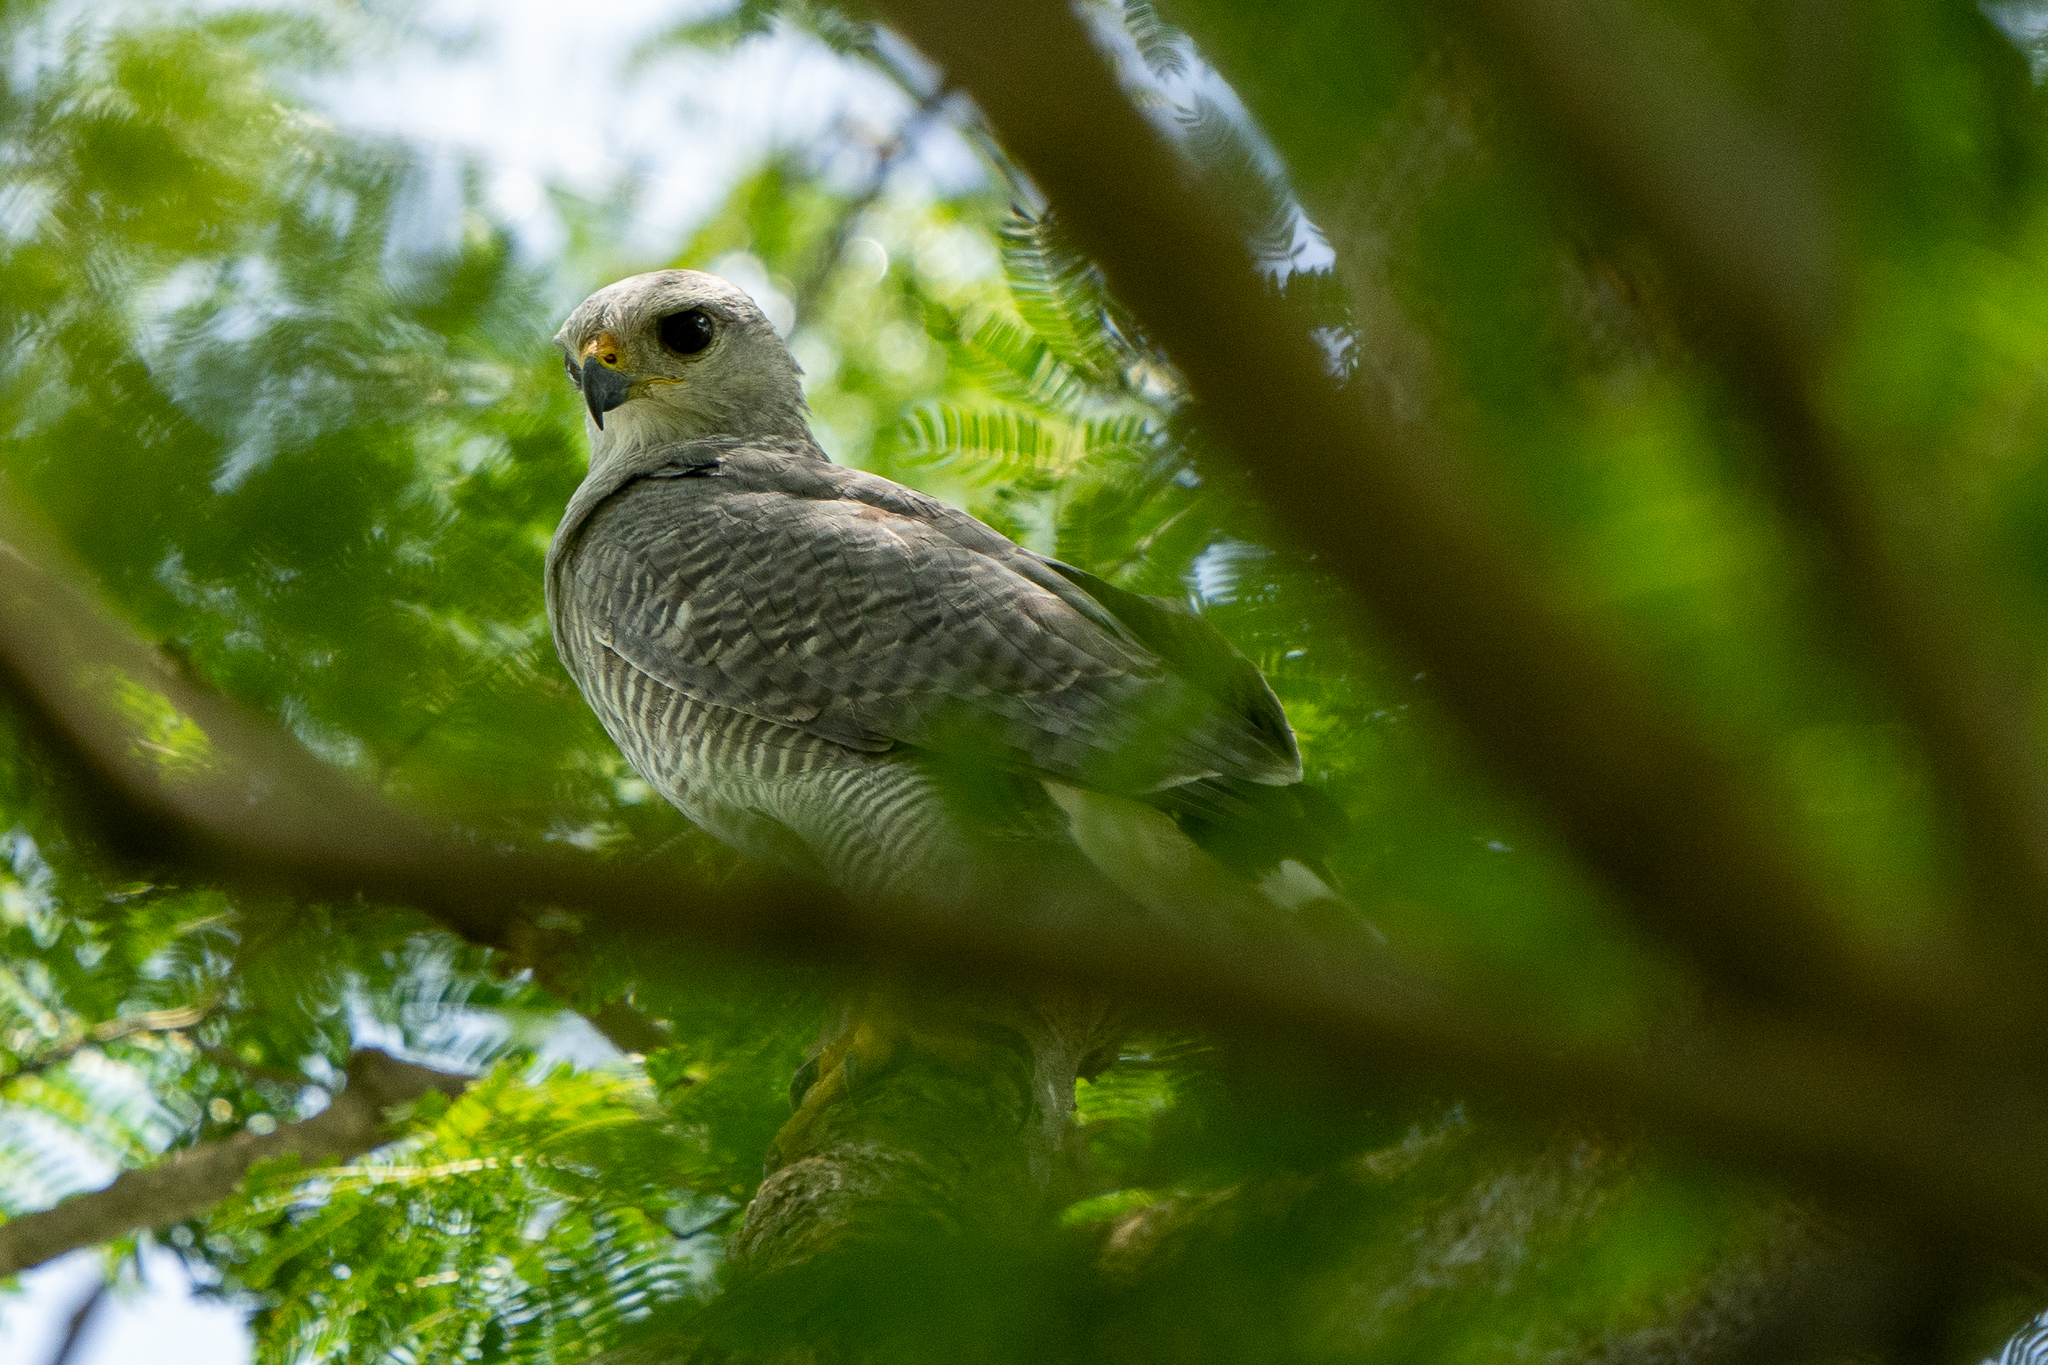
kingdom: Animalia
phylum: Chordata
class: Aves
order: Accipitriformes
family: Accipitridae
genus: Buteo
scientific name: Buteo nitidus
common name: Grey-lined hawk
